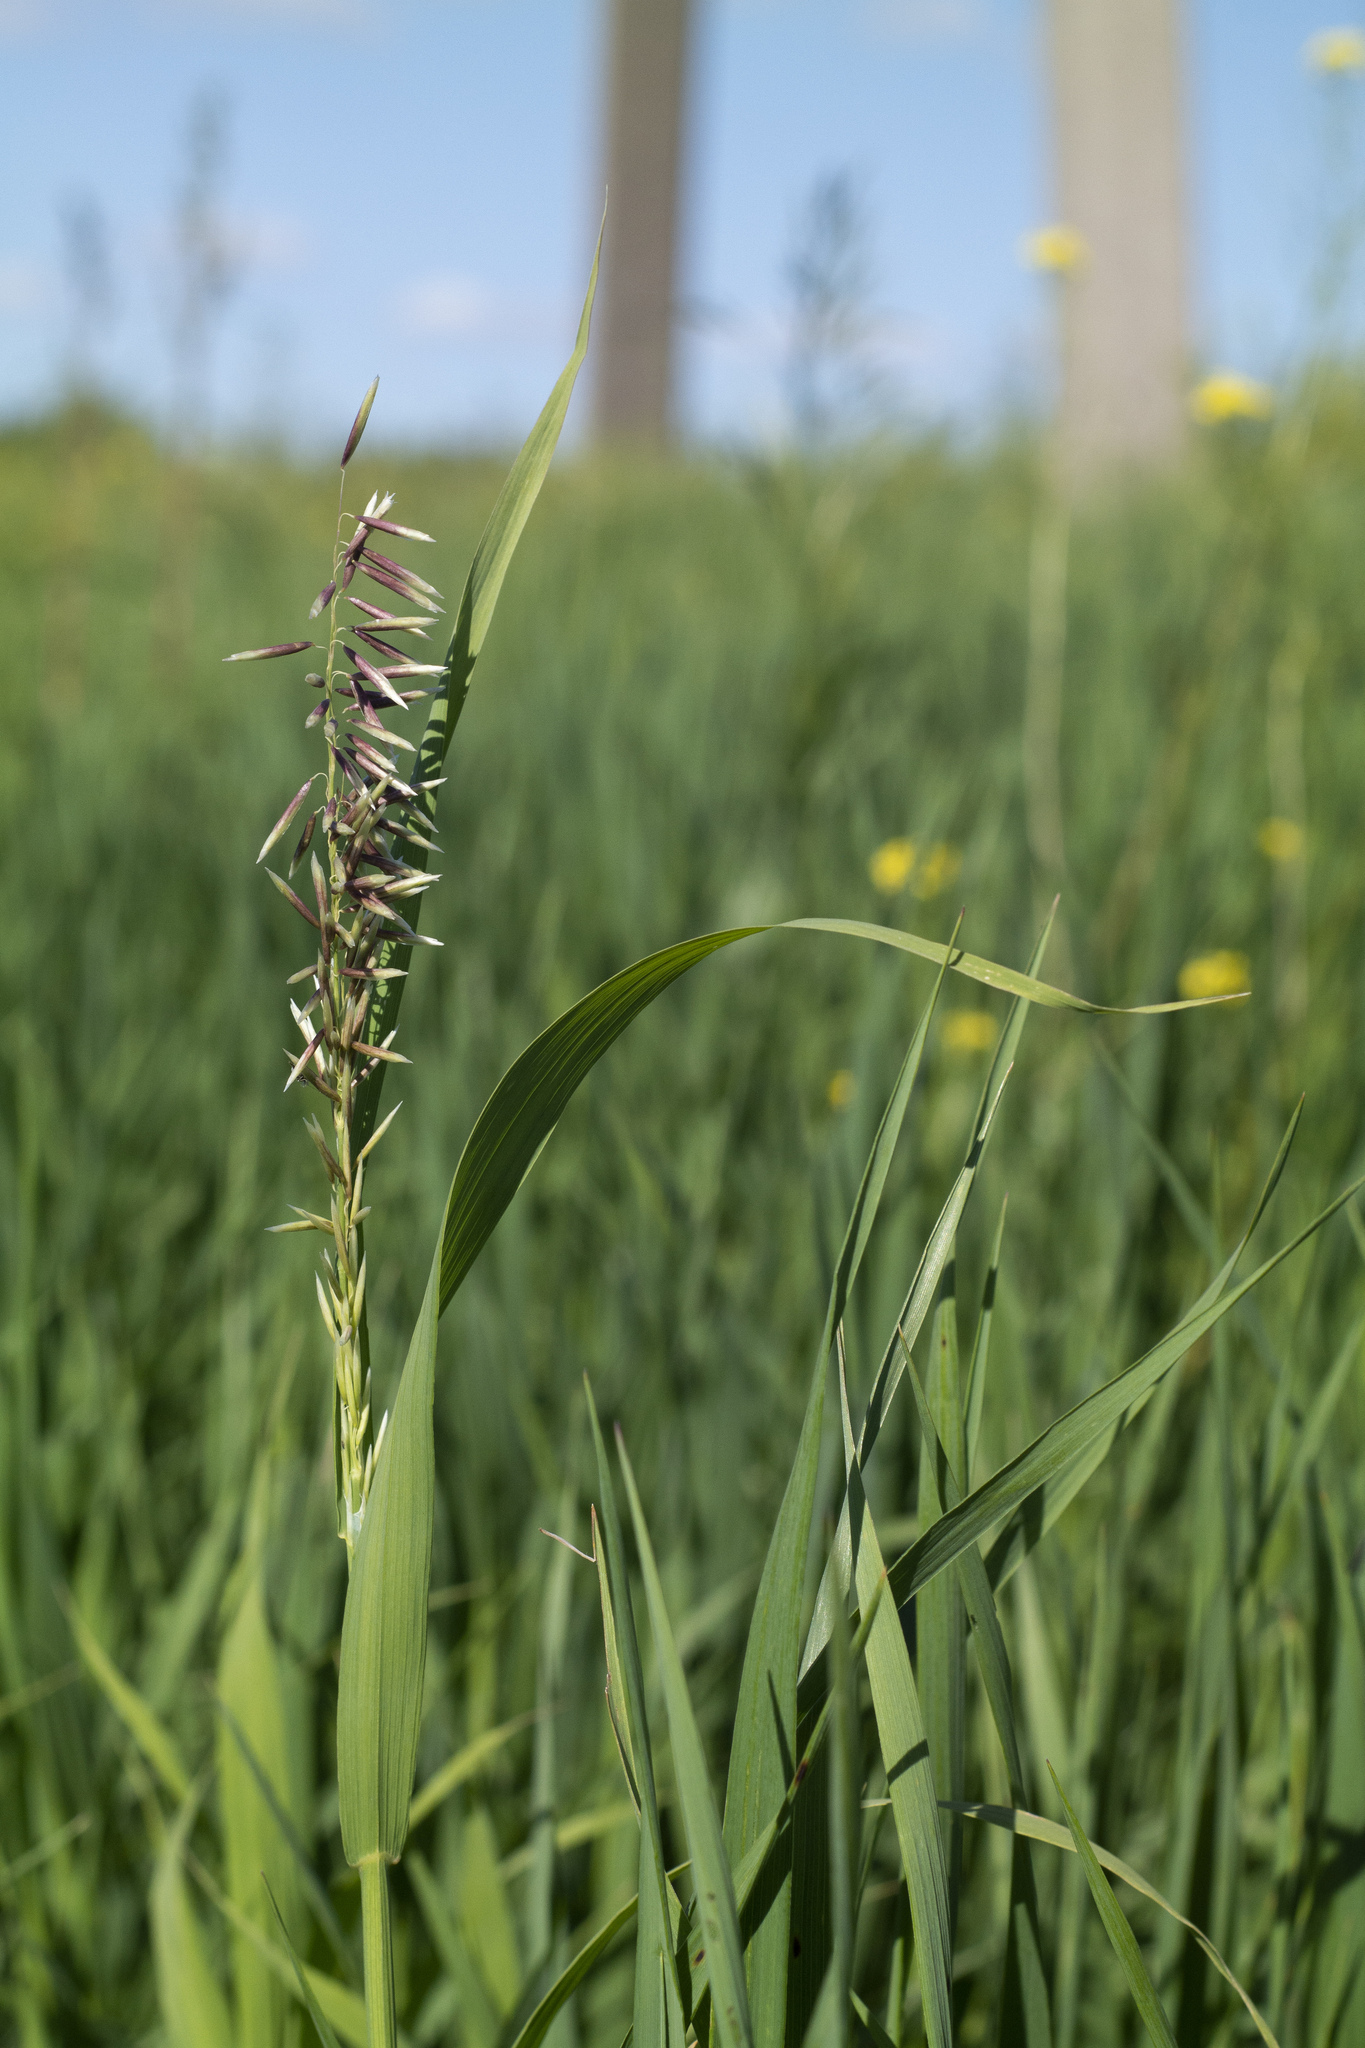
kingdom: Plantae
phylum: Tracheophyta
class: Liliopsida
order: Poales
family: Poaceae
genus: Melica
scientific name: Melica altissima
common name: Siberian melicgrass
